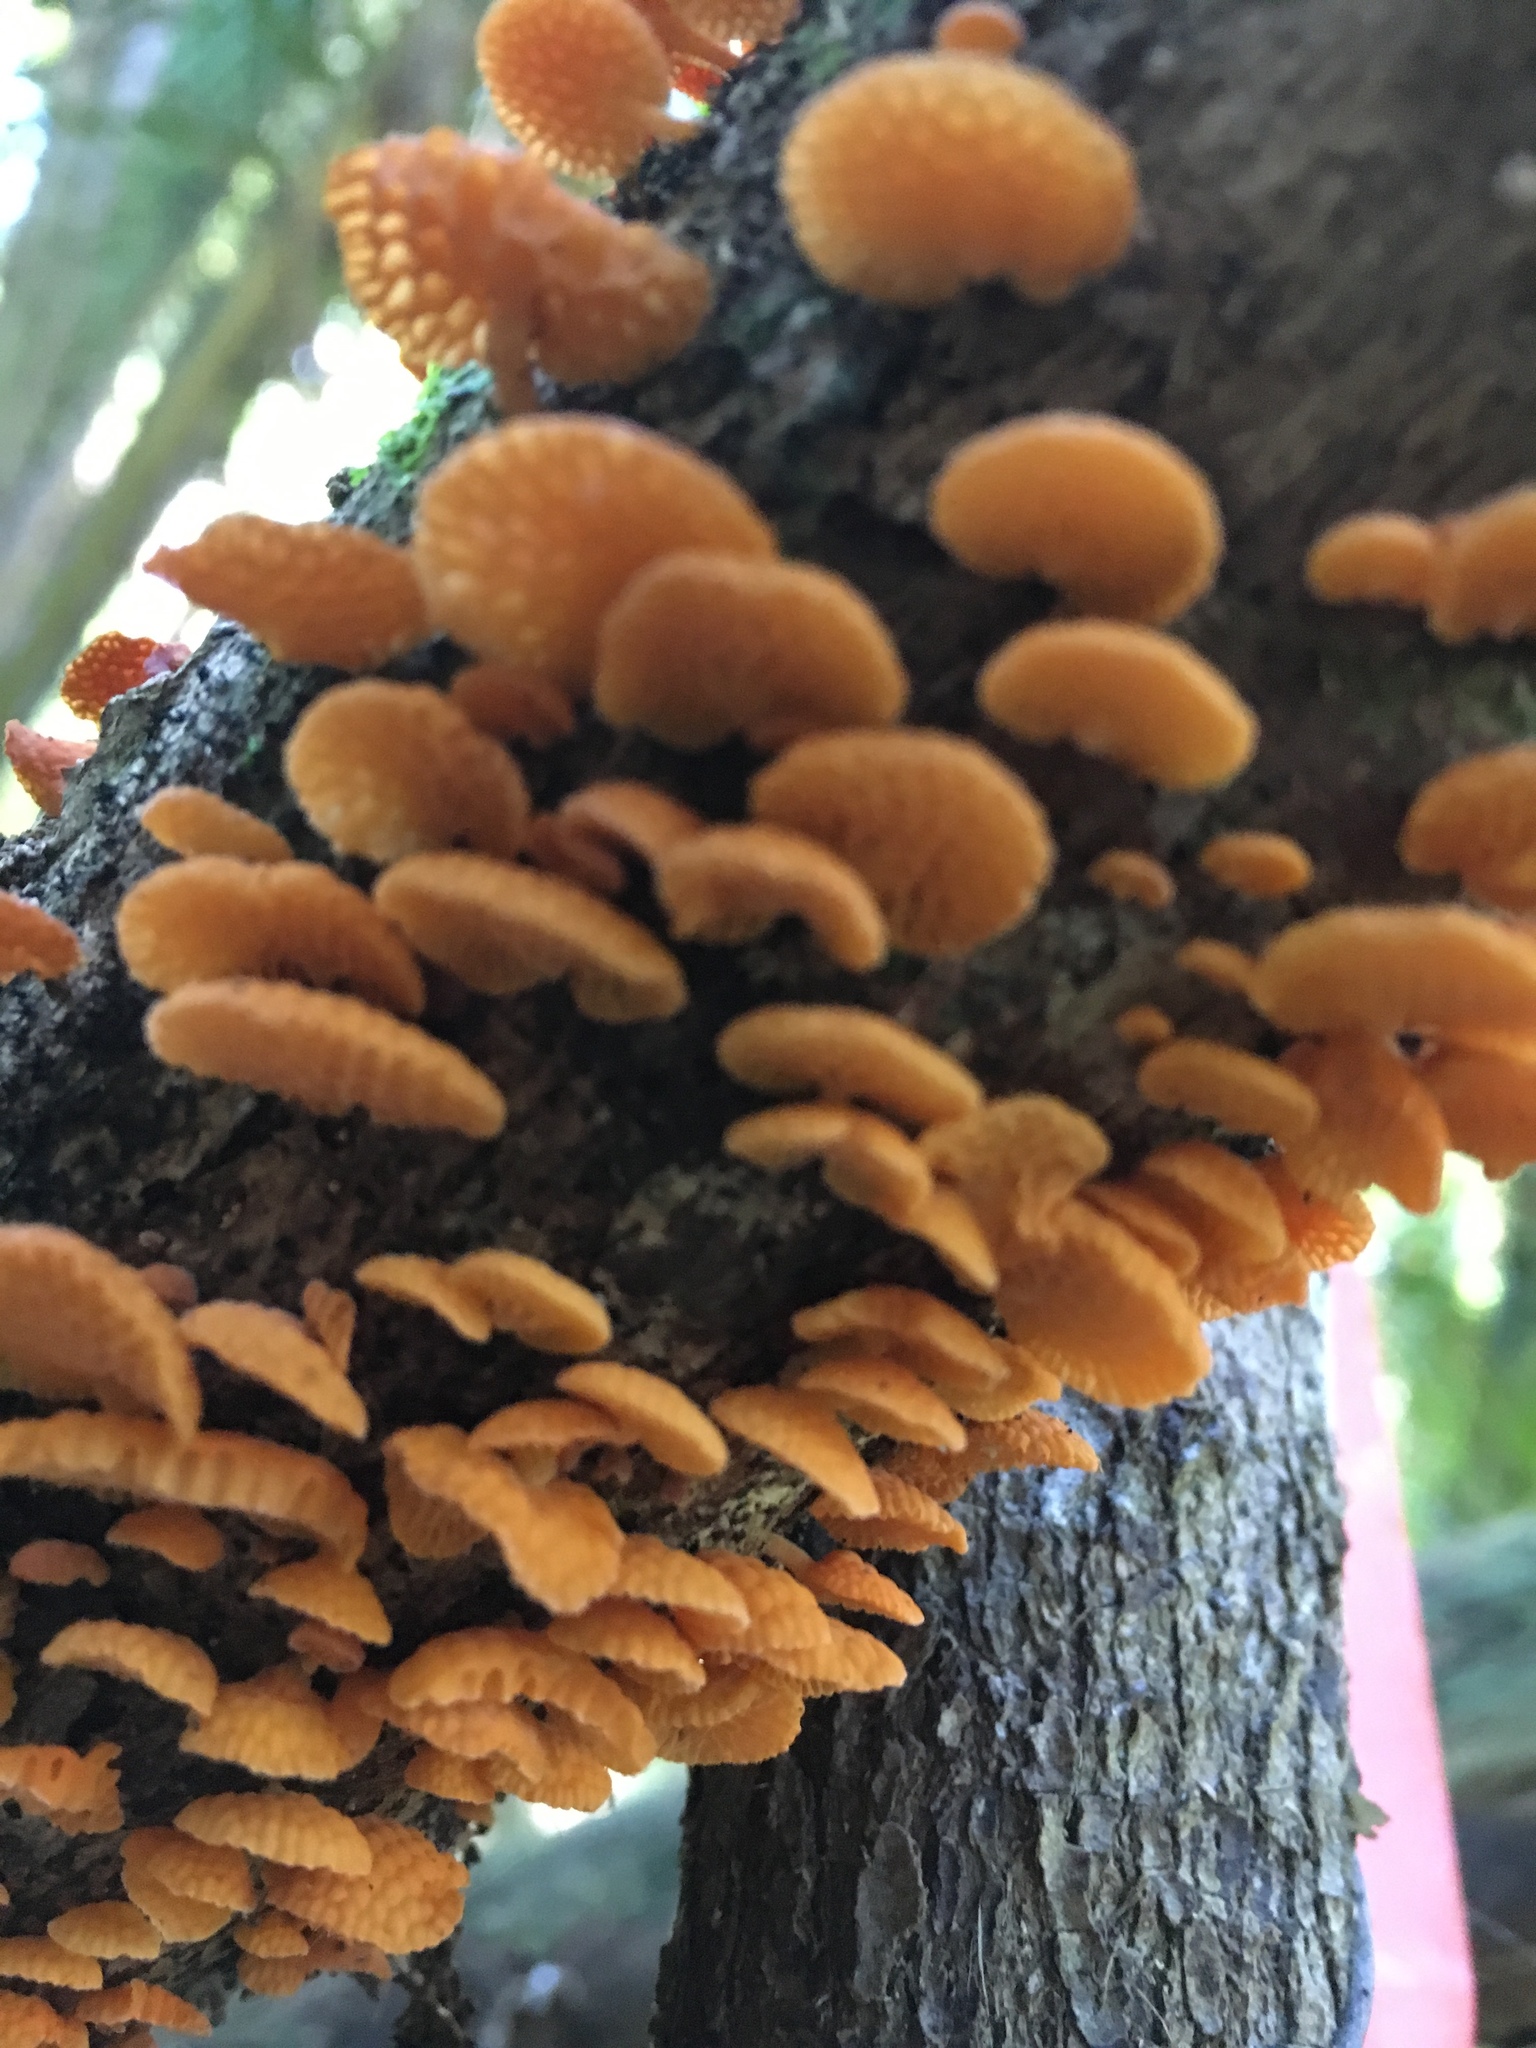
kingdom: Fungi
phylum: Basidiomycota
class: Agaricomycetes
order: Agaricales
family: Mycenaceae
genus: Favolaschia
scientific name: Favolaschia claudopus
